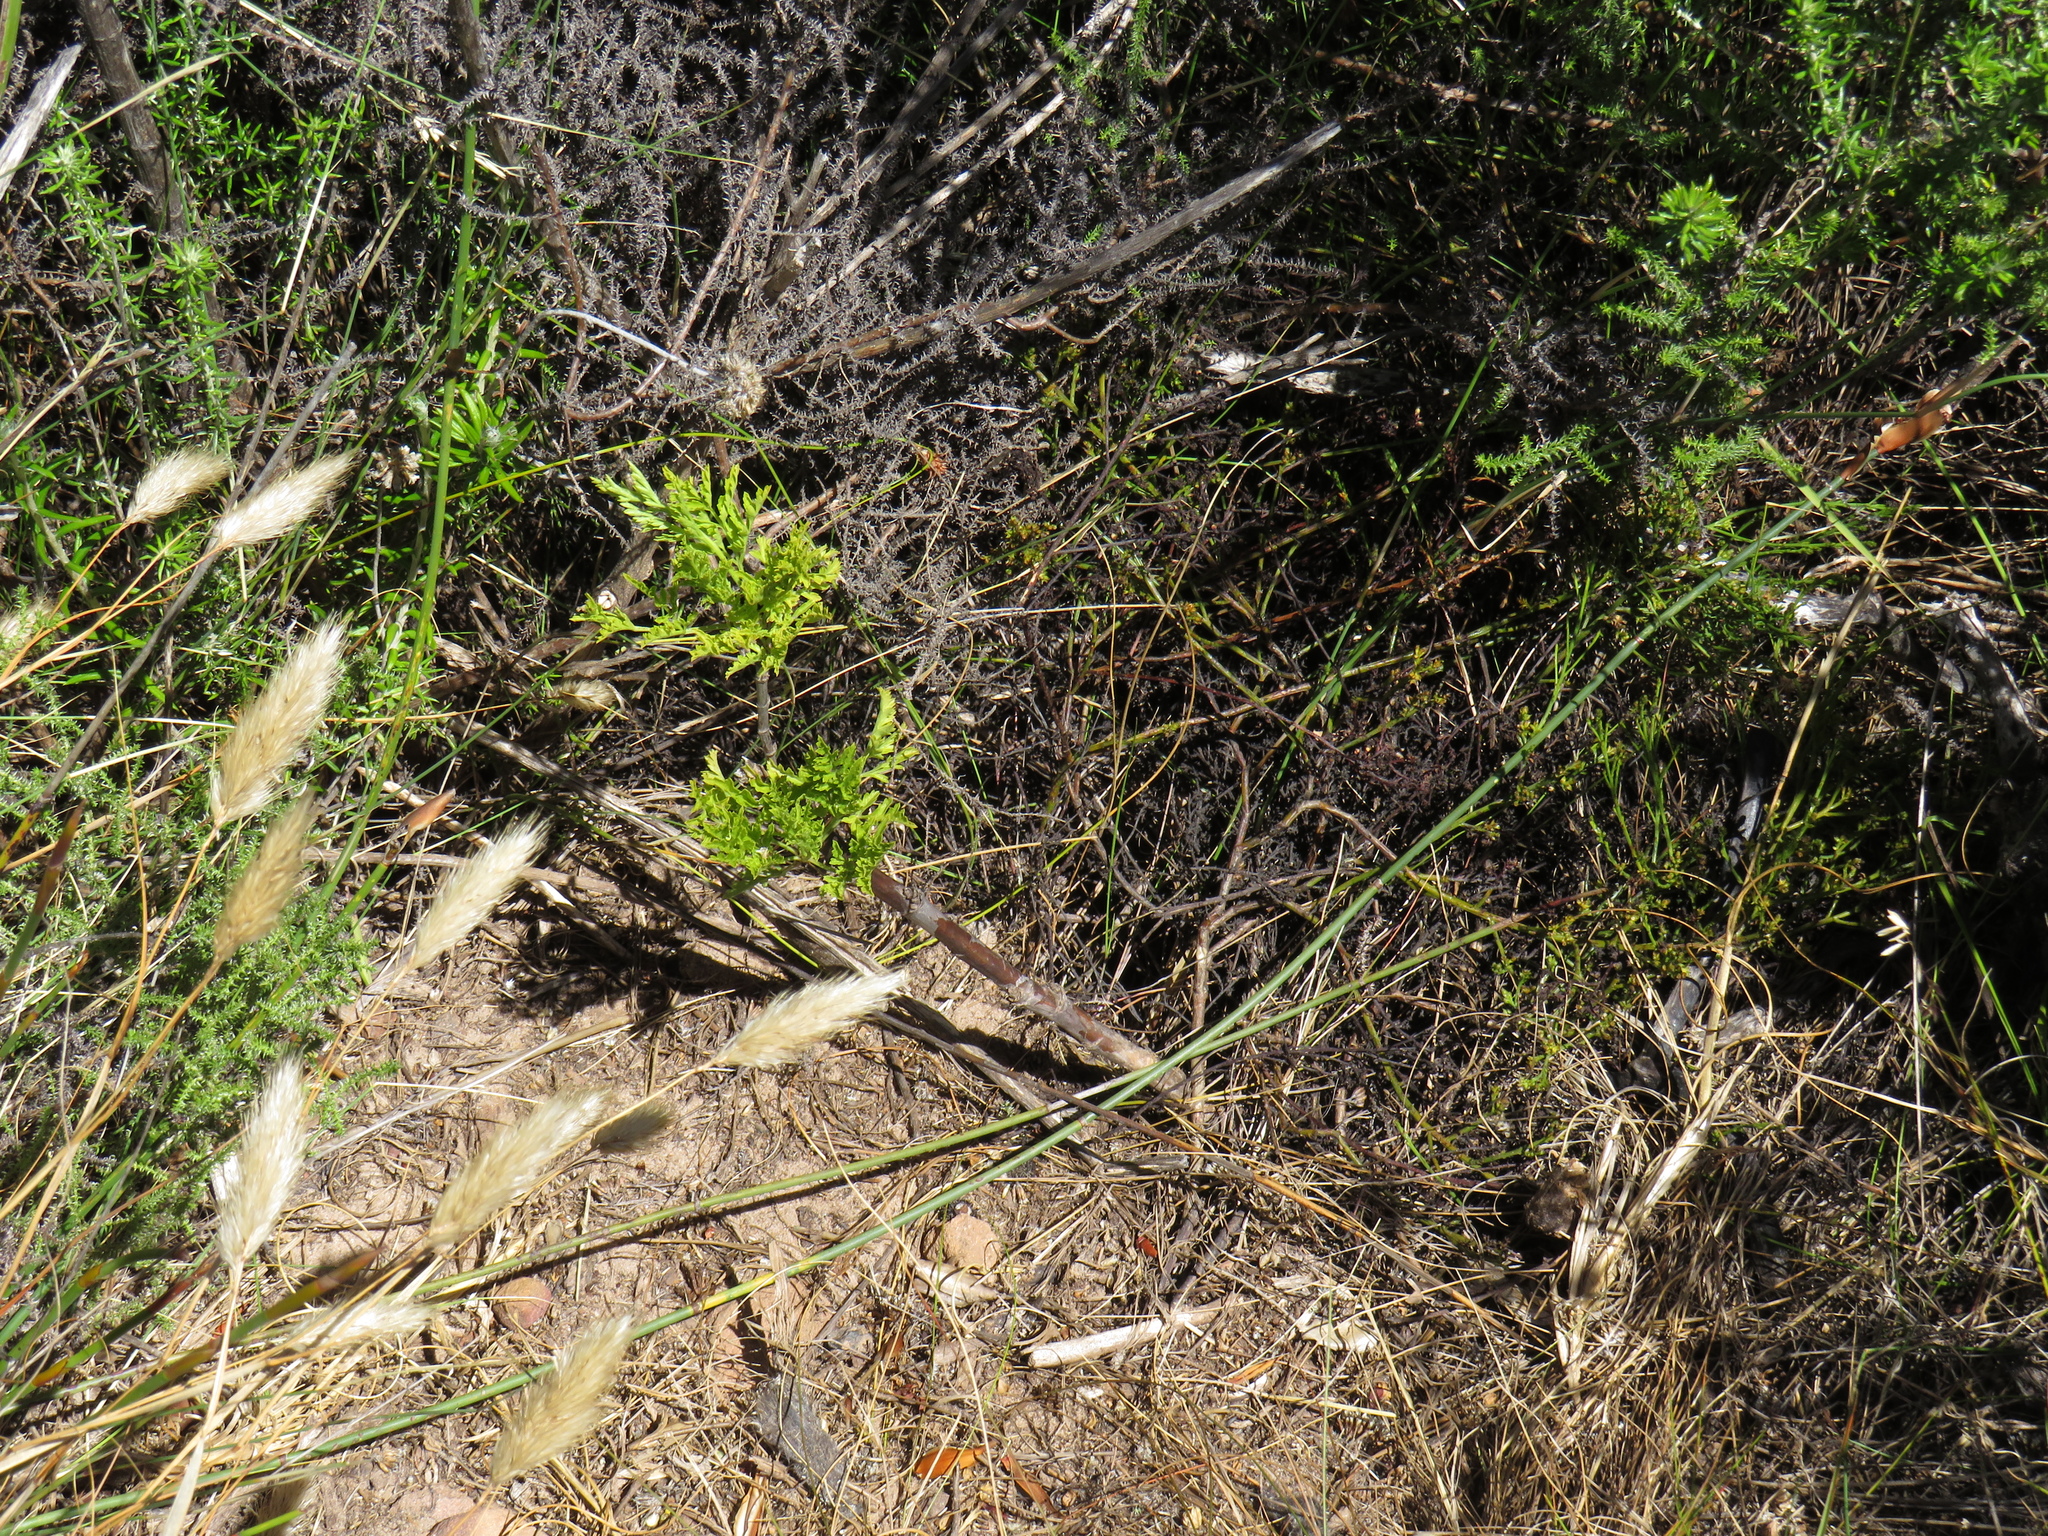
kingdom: Plantae
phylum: Tracheophyta
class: Magnoliopsida
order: Apiales
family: Apiaceae
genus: Glia
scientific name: Glia prolifera
